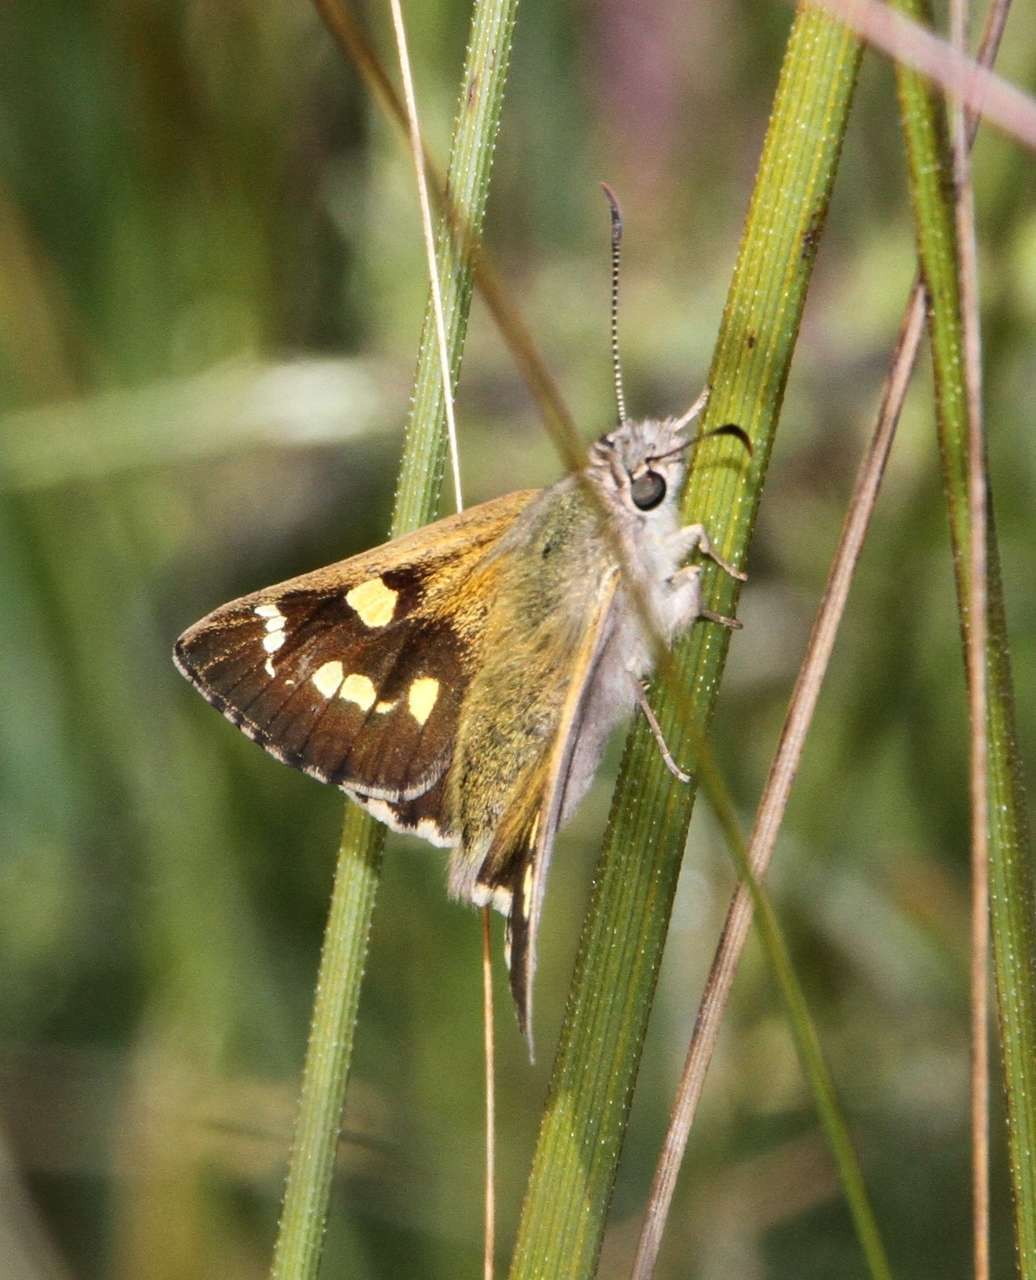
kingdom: Animalia
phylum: Arthropoda
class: Insecta
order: Lepidoptera
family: Hesperiidae
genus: Hesperilla
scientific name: Hesperilla donnysa
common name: Varied sedge-skipper
